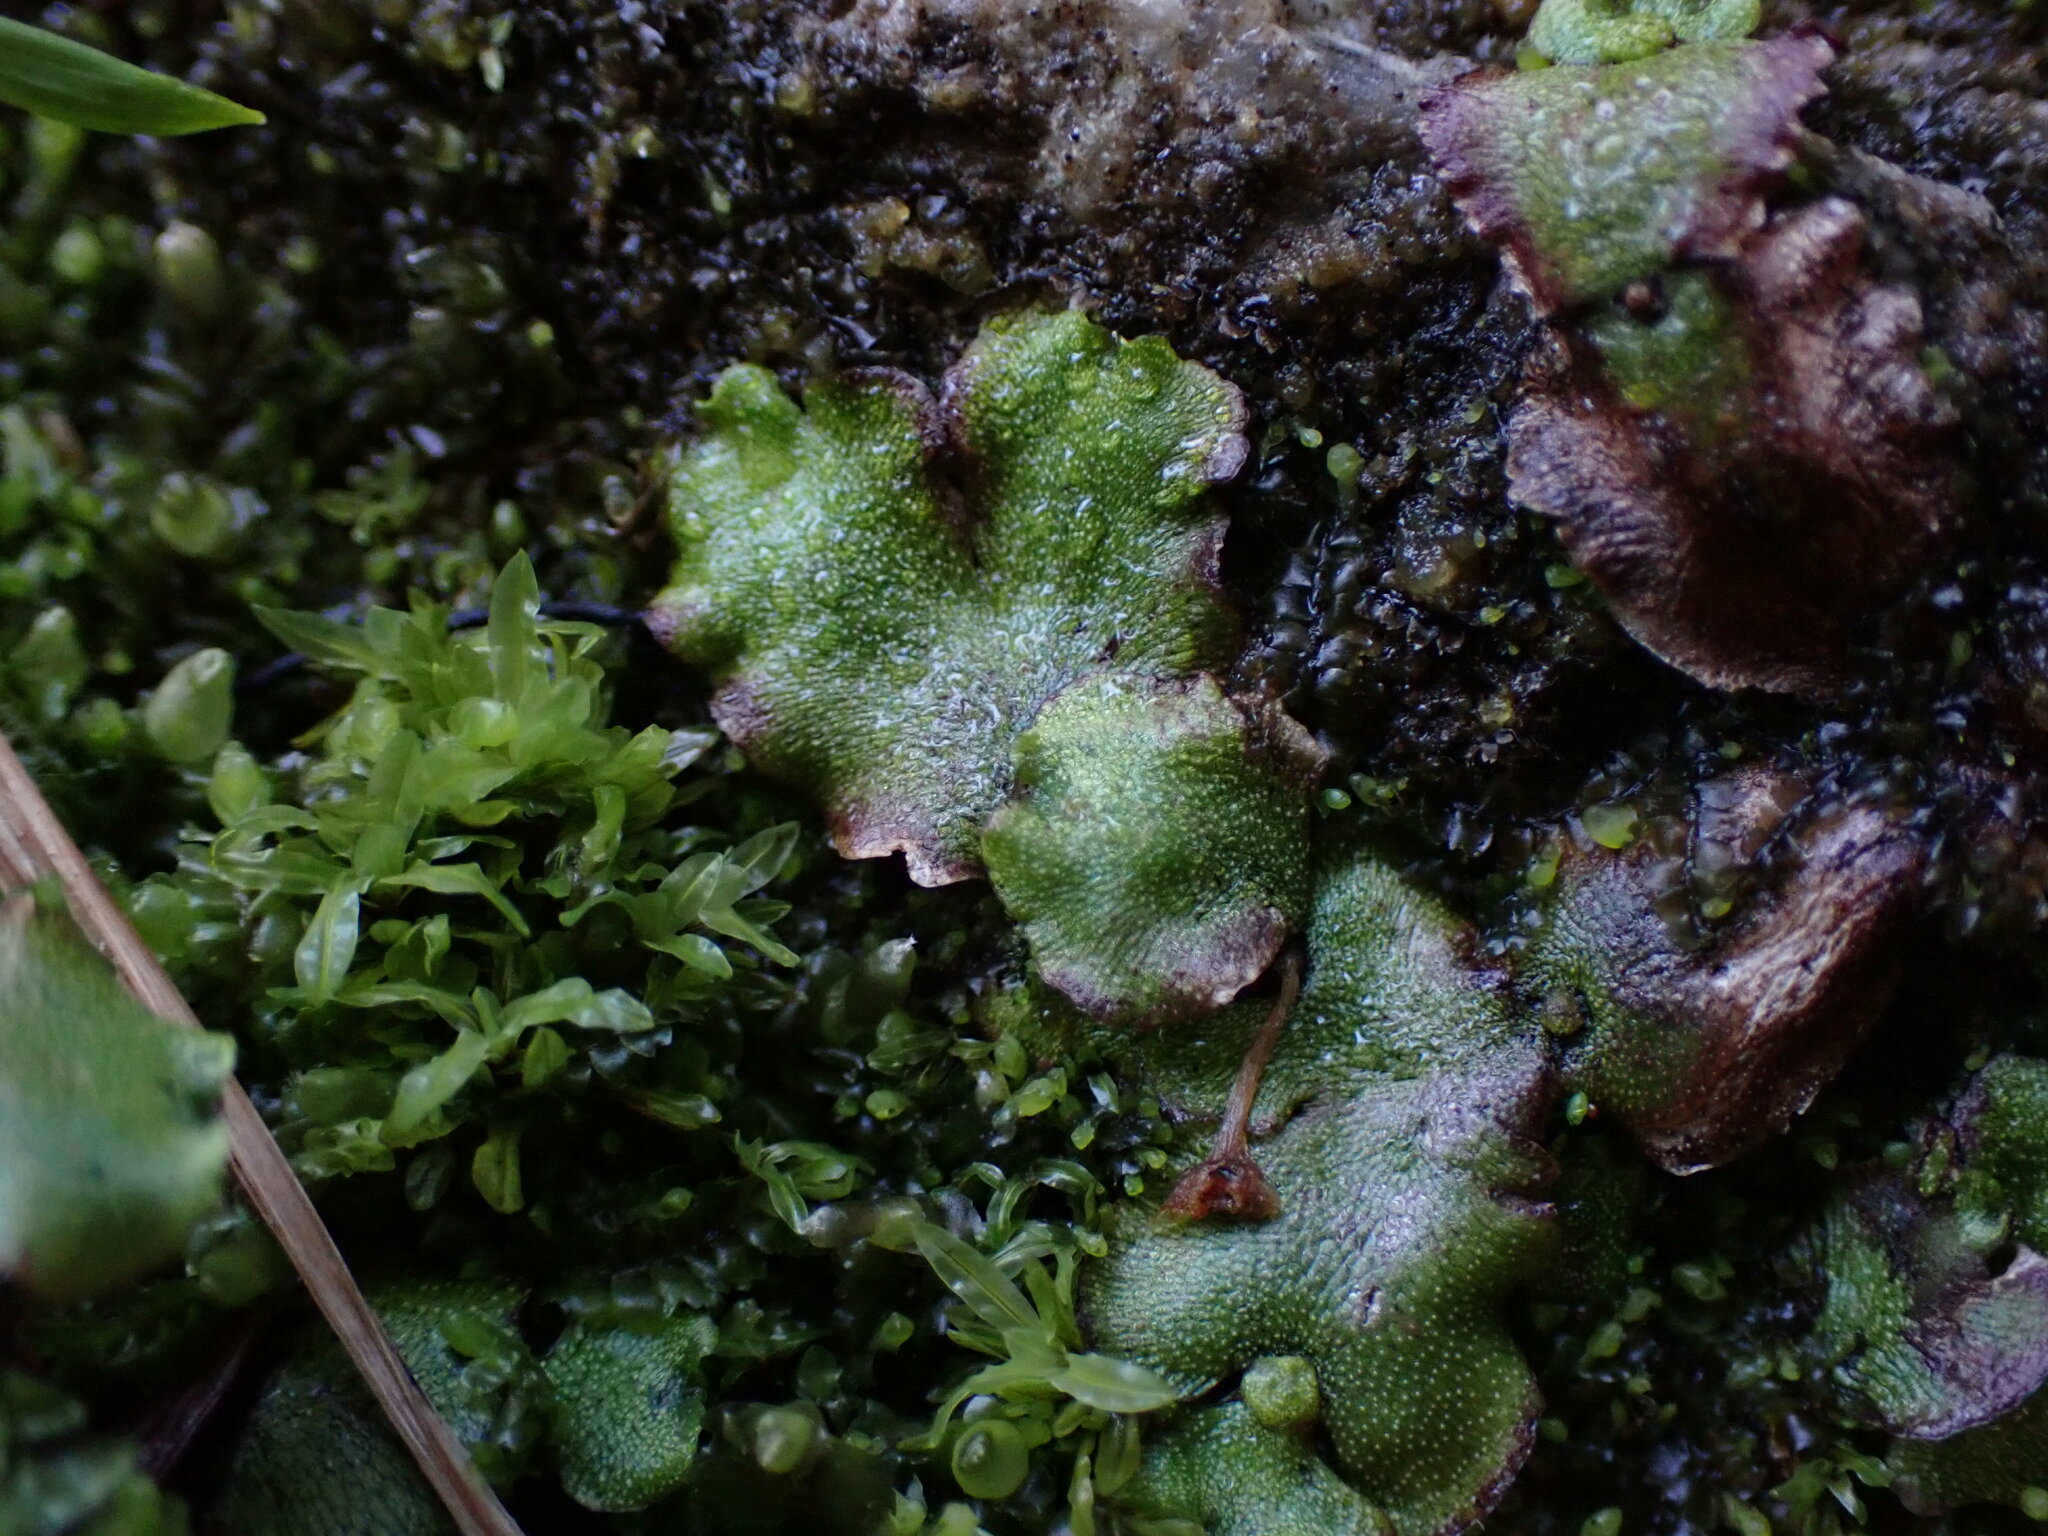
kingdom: Plantae
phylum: Marchantiophyta
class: Marchantiopsida
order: Marchantiales
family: Marchantiaceae
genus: Marchantia
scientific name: Marchantia quadrata
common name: Narrow mushroom-headed liverwort
